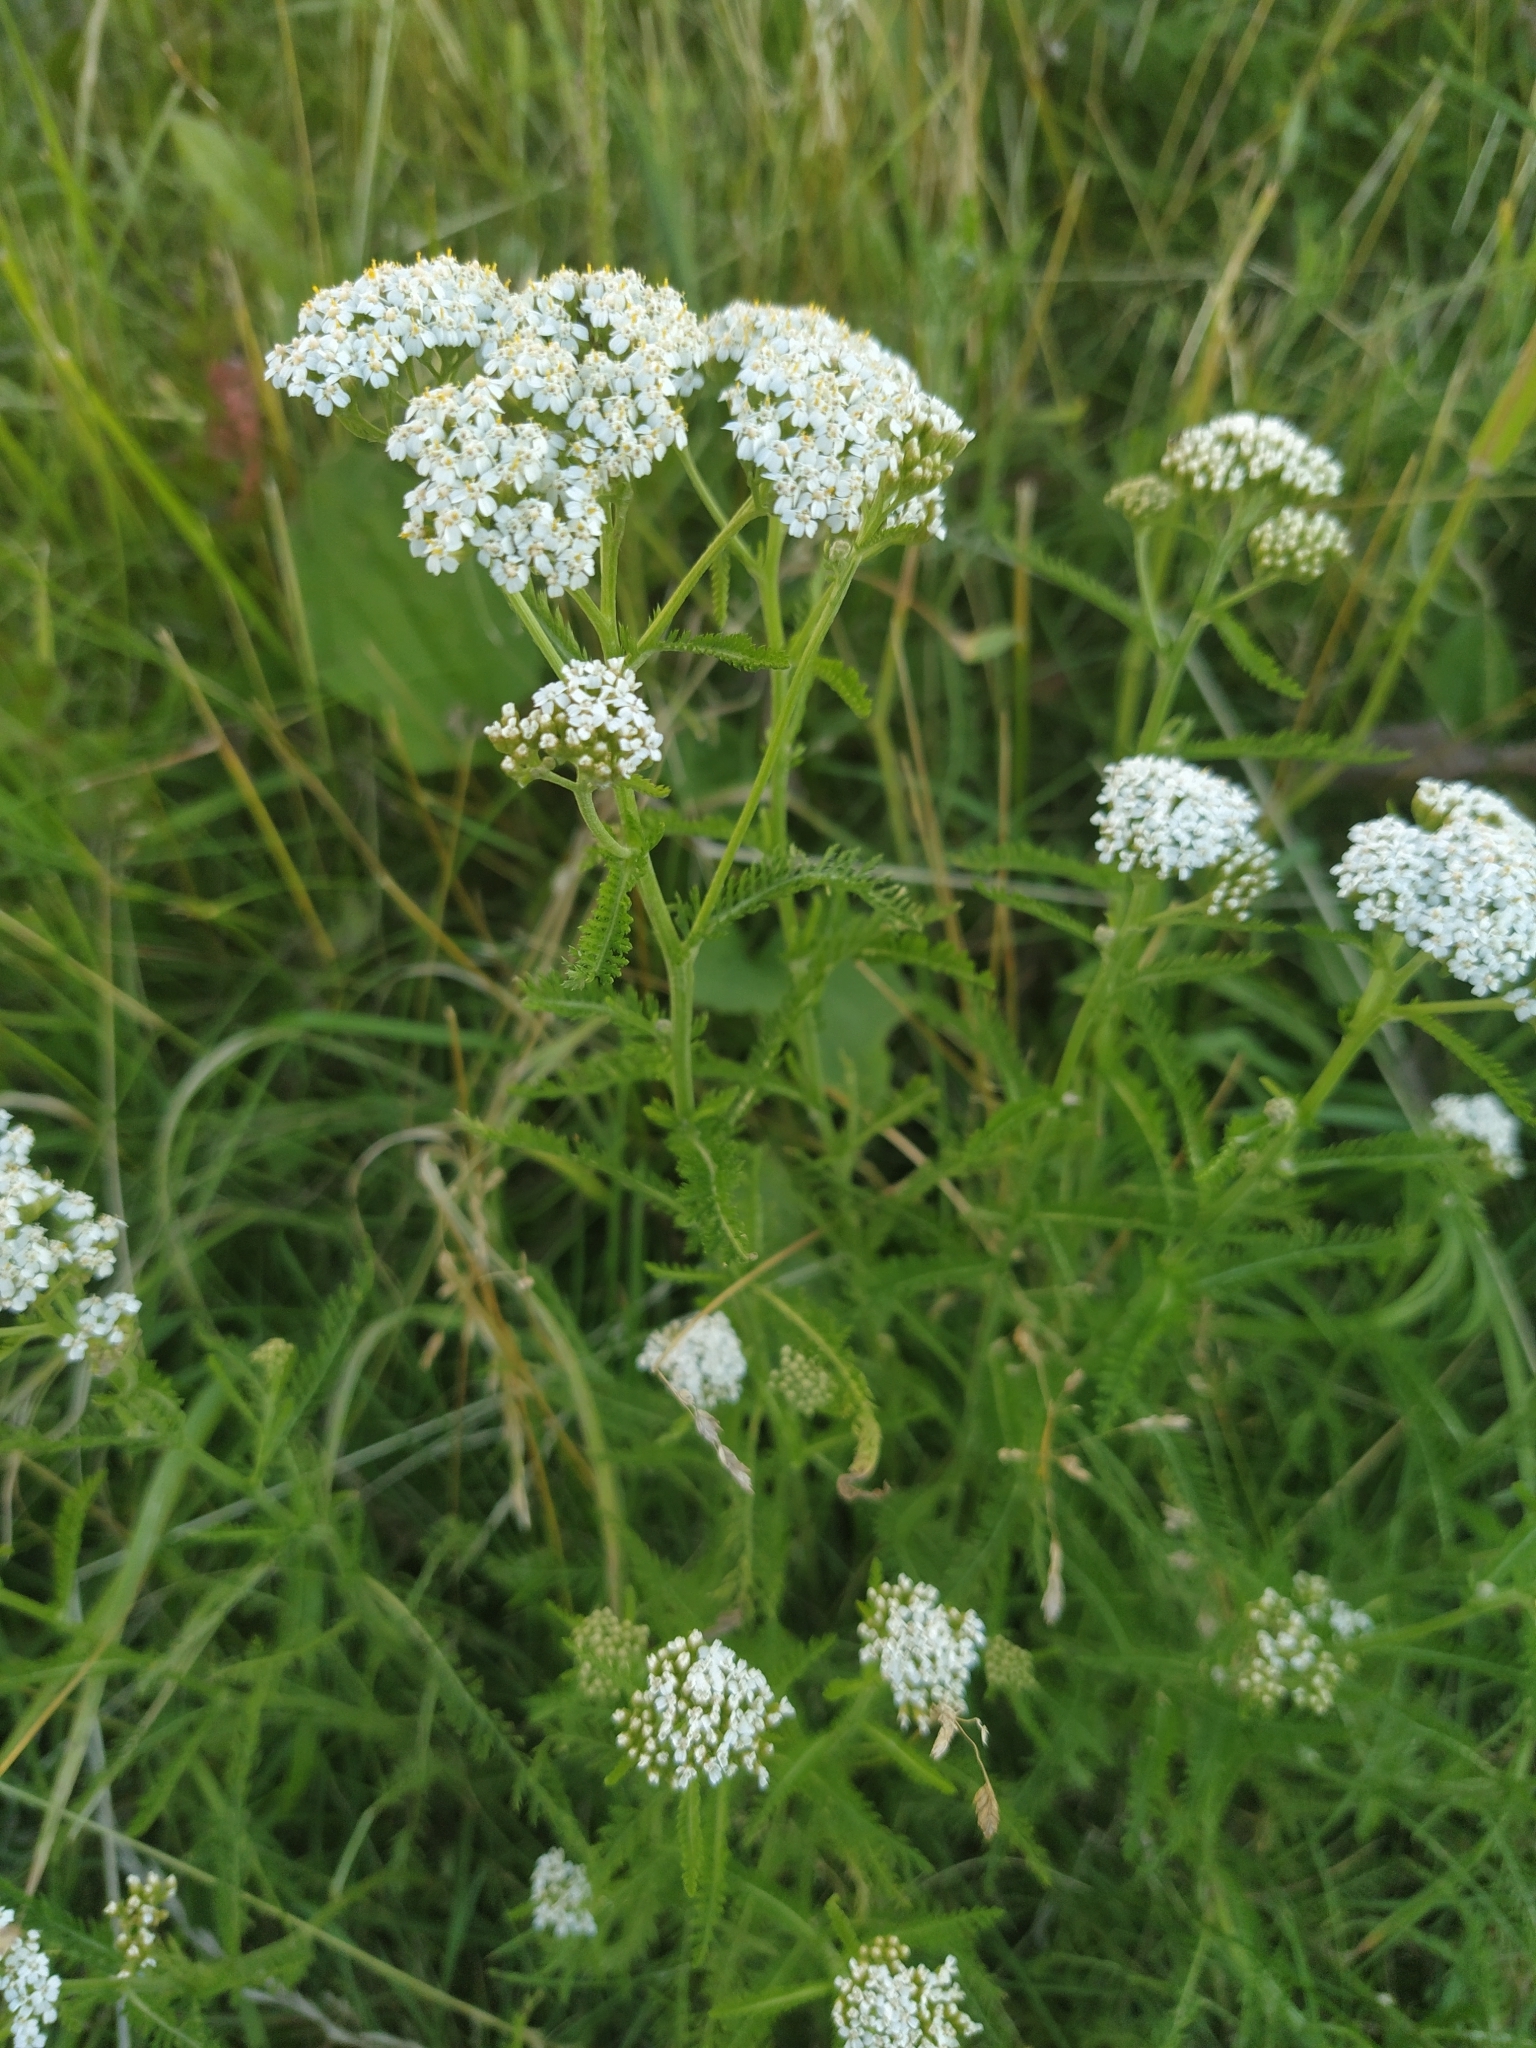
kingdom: Plantae
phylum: Tracheophyta
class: Magnoliopsida
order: Asterales
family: Asteraceae
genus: Achillea
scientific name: Achillea millefolium
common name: Yarrow
